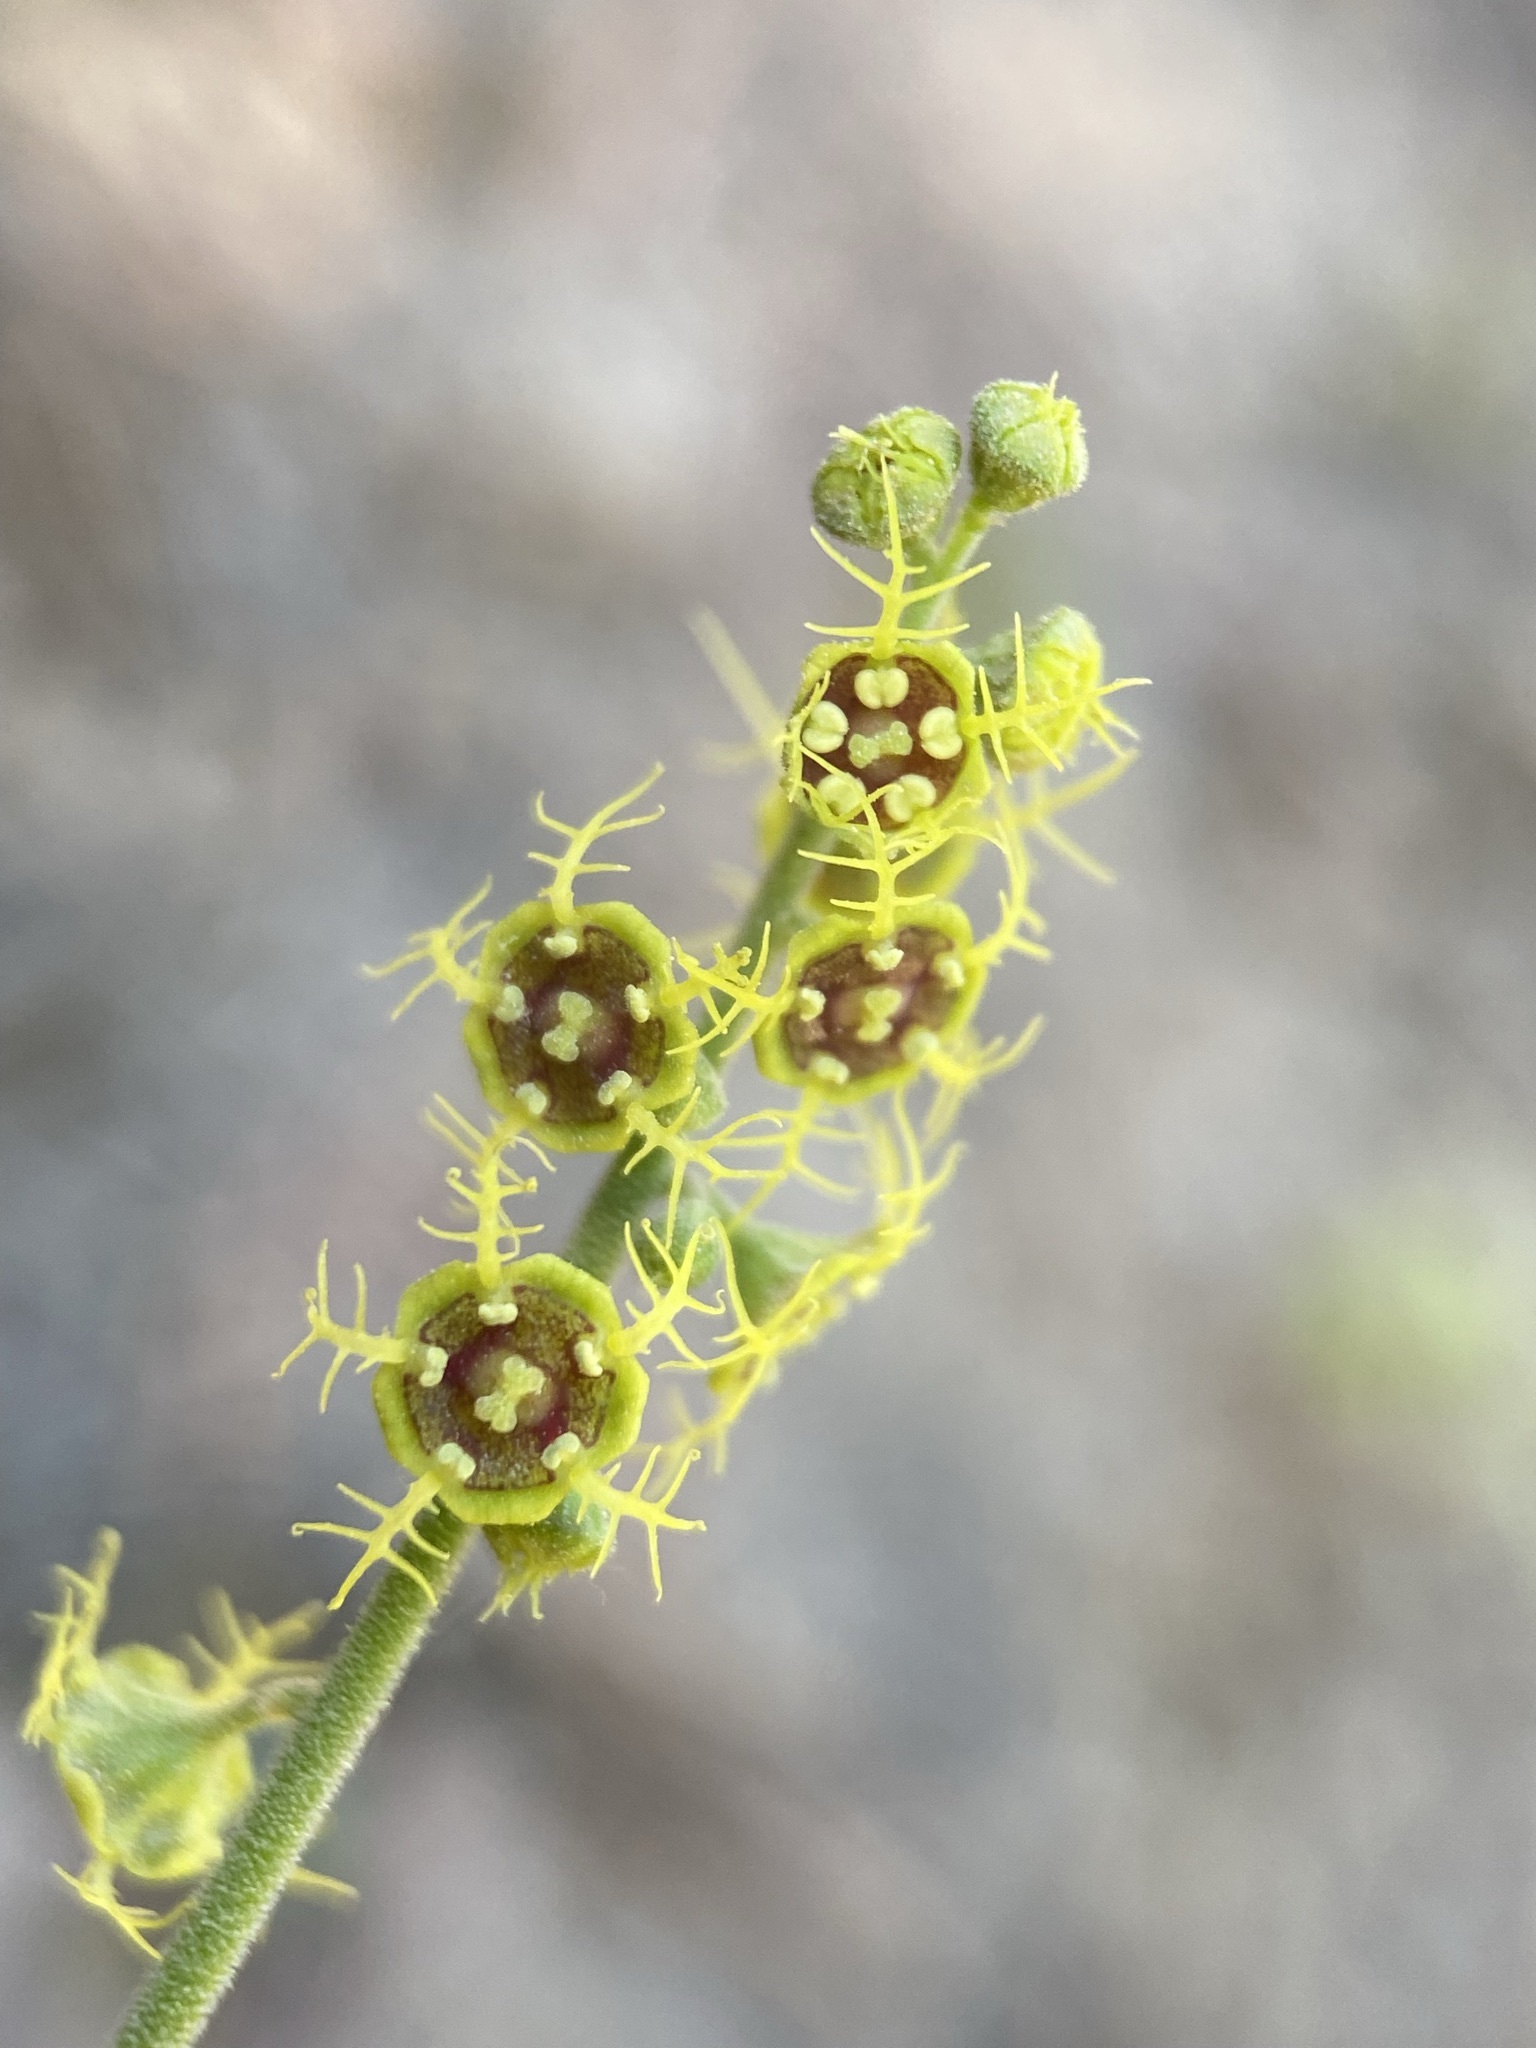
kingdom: Plantae
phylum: Tracheophyta
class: Magnoliopsida
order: Saxifragales
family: Saxifragaceae
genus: Pectiantia
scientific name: Pectiantia pentandra
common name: Alpine bishop's-cap
